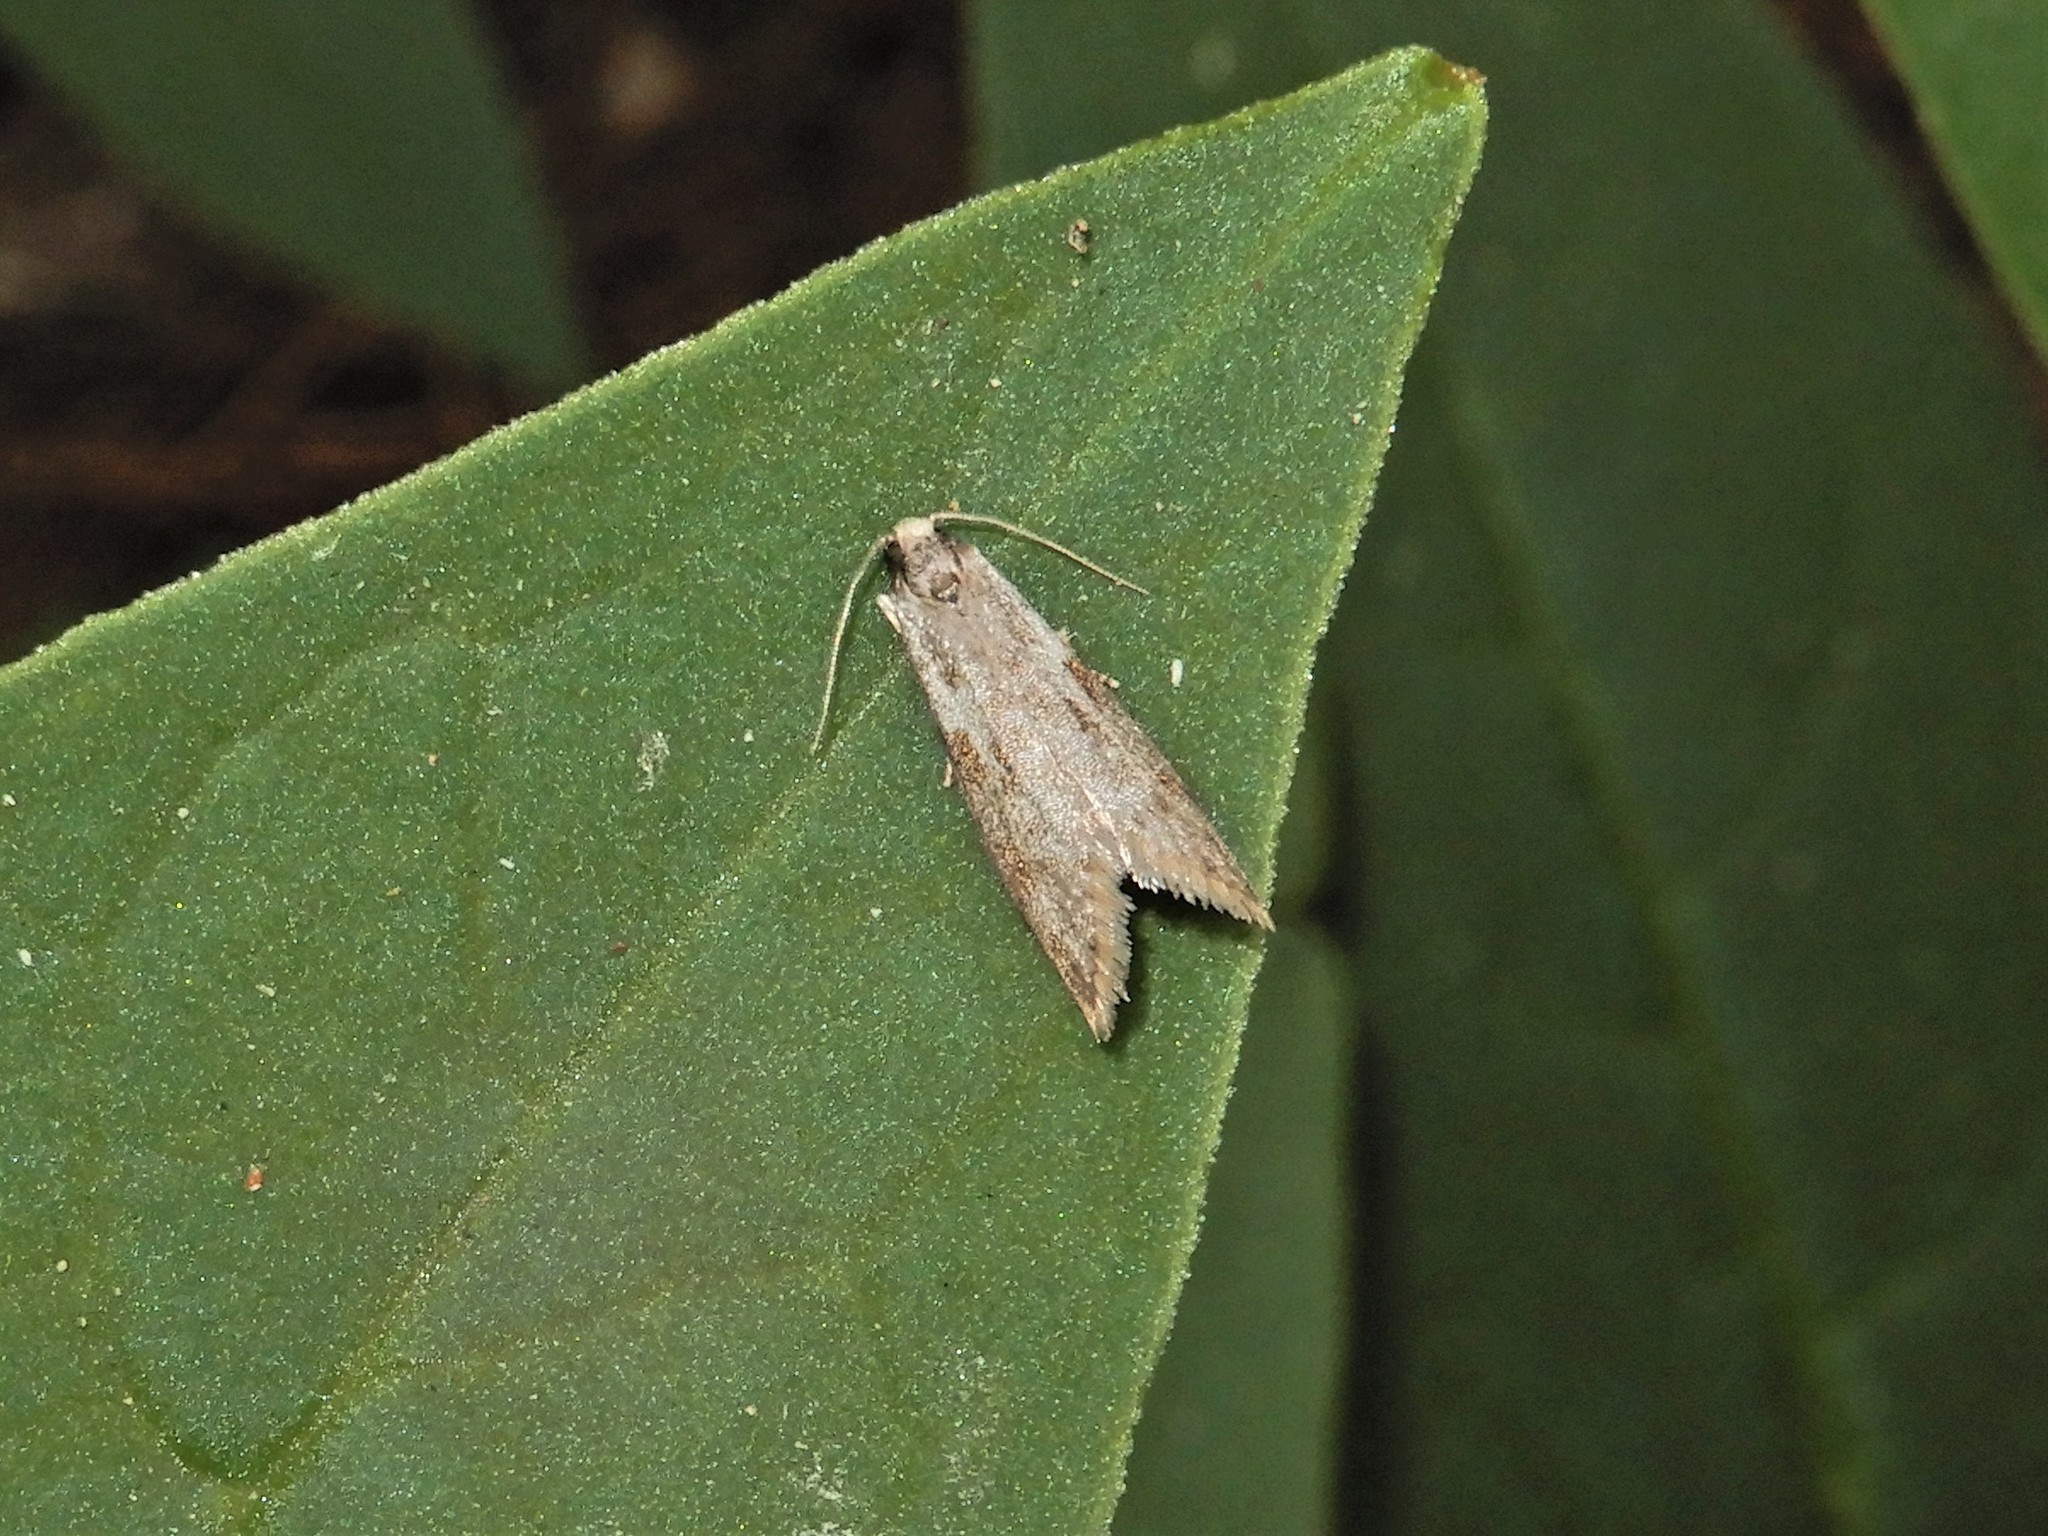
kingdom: Animalia
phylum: Arthropoda
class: Insecta
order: Lepidoptera
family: Psychidae
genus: Lepidoscia
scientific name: Lepidoscia protorna
